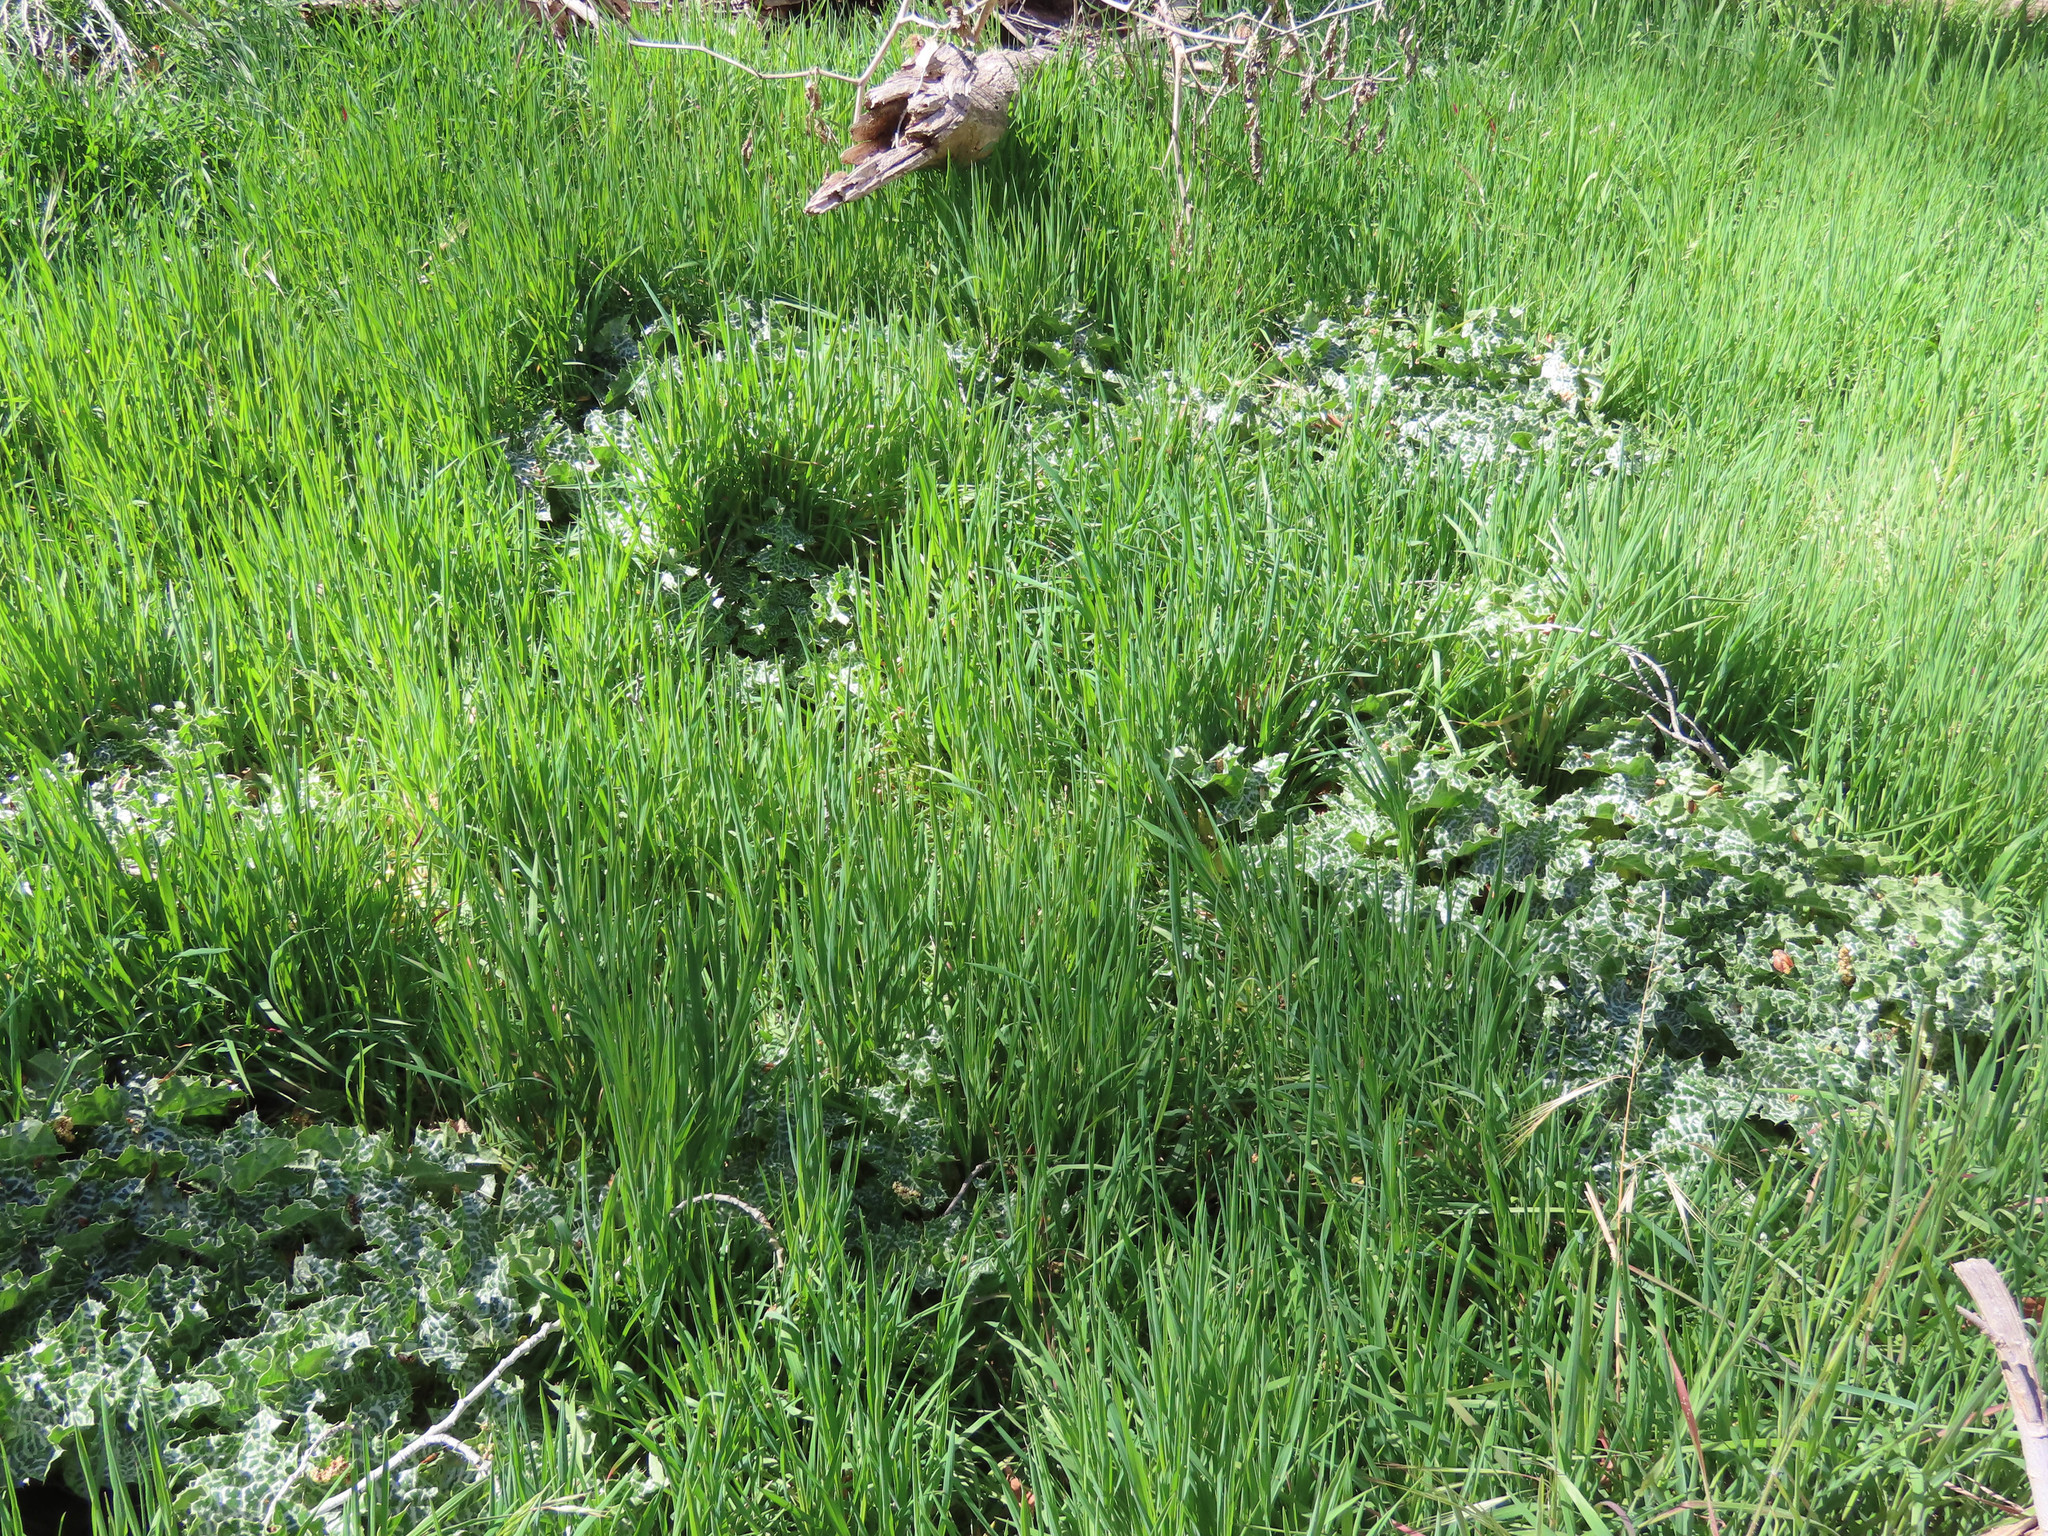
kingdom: Plantae
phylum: Tracheophyta
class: Magnoliopsida
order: Asterales
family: Asteraceae
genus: Silybum
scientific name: Silybum marianum
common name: Milk thistle
